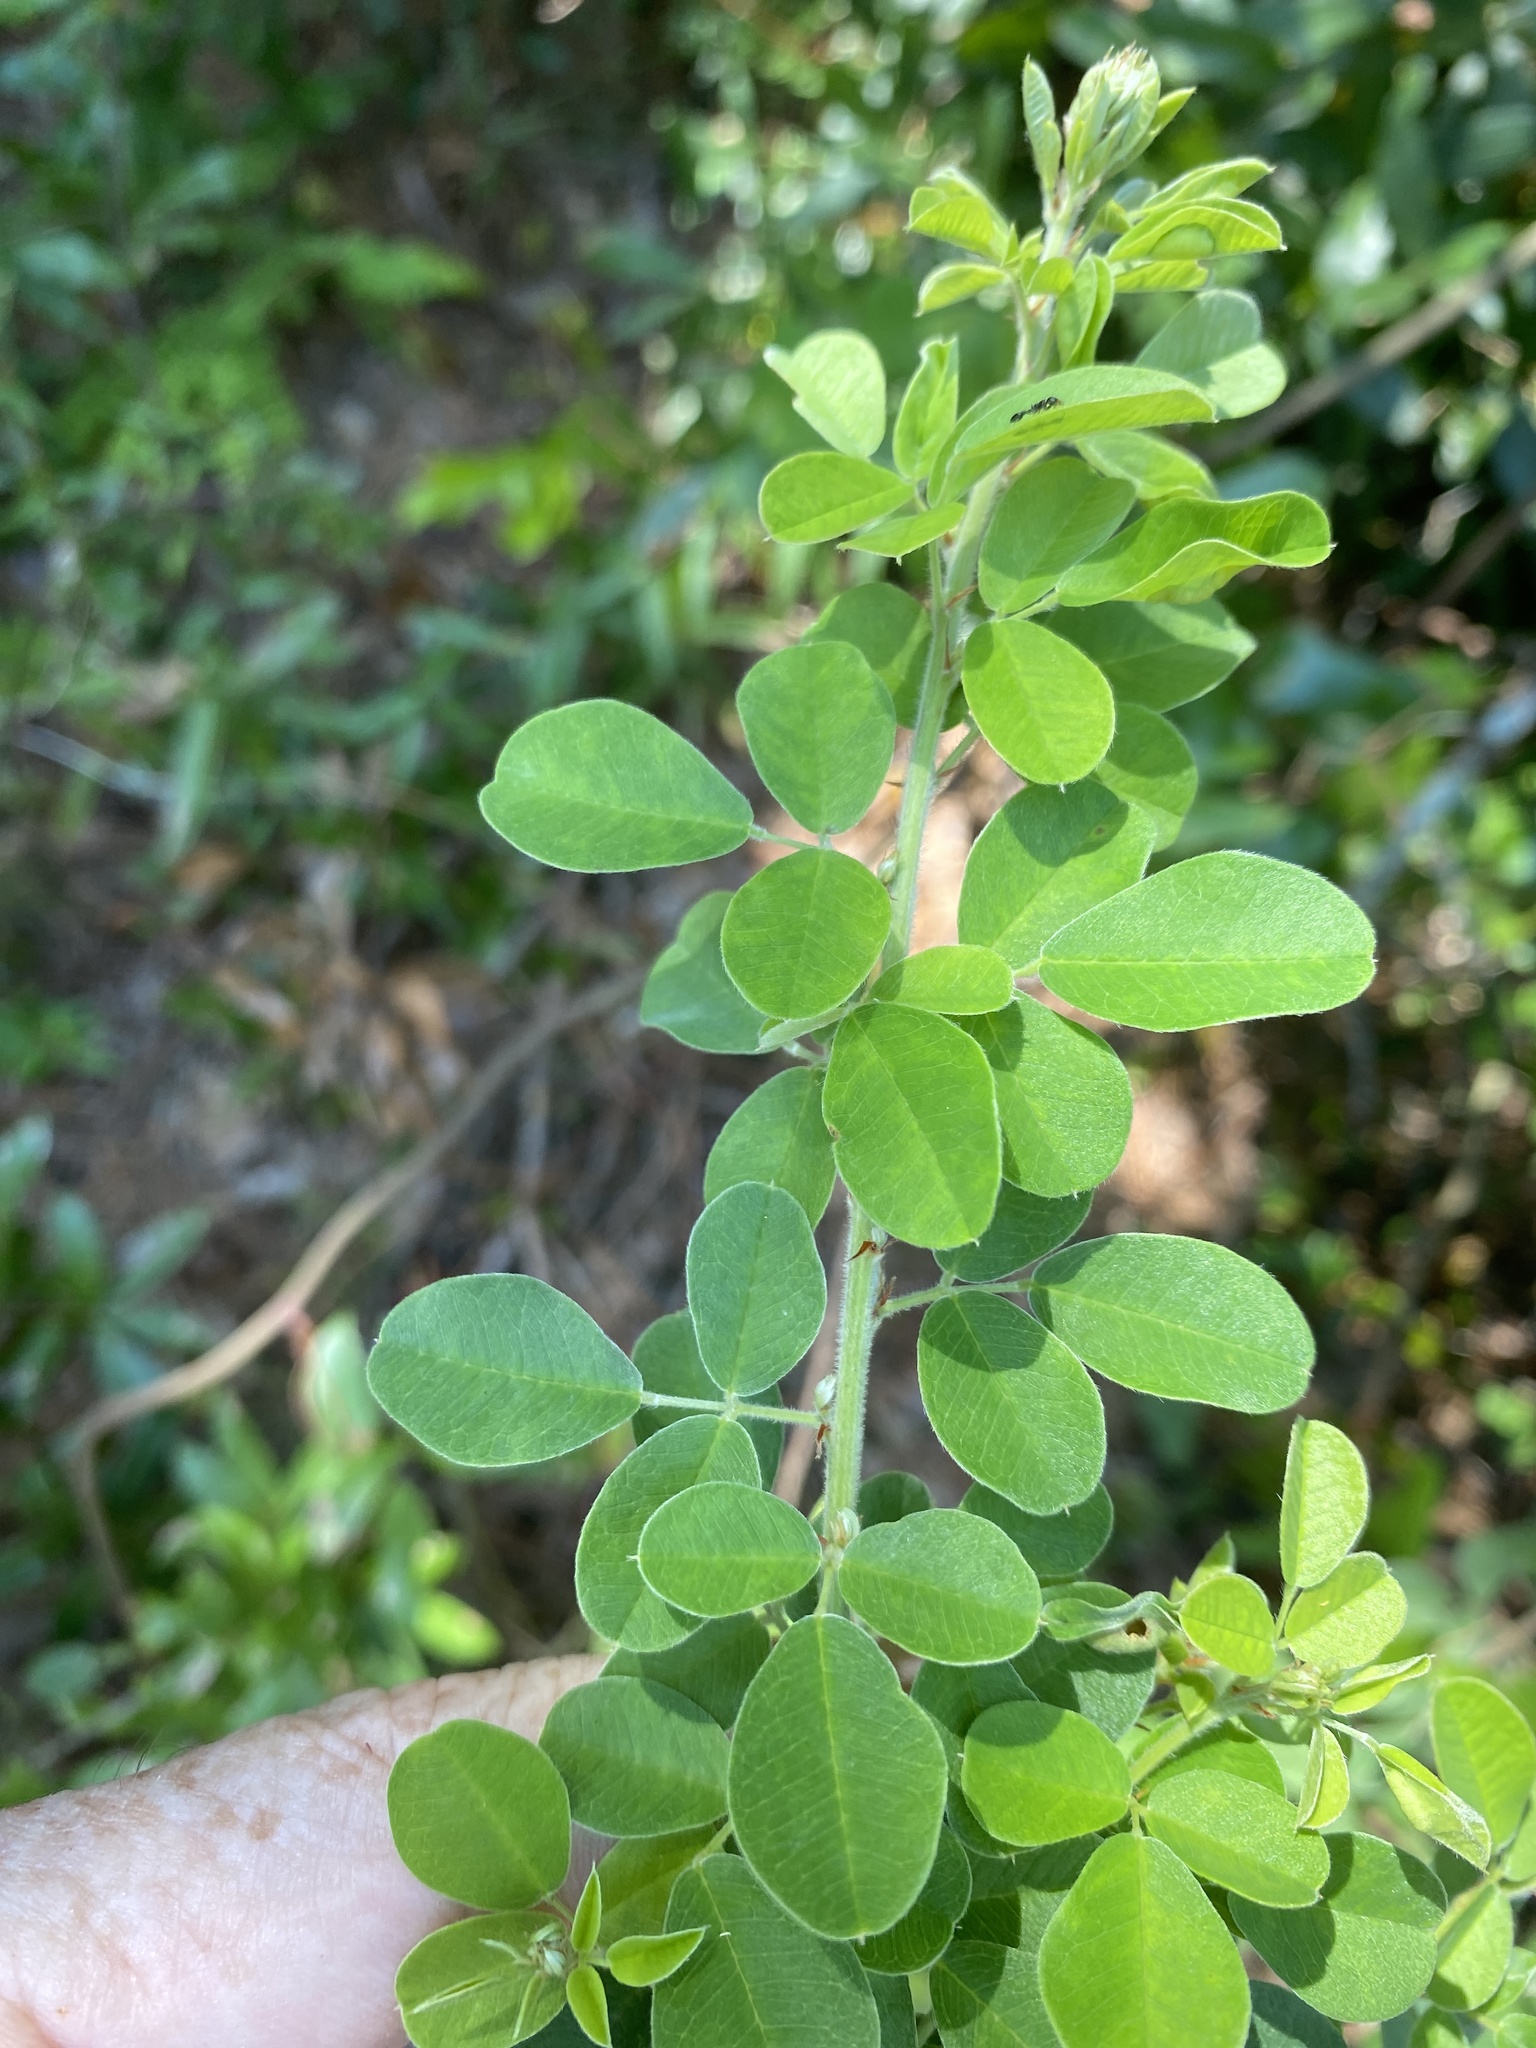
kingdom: Plantae
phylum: Tracheophyta
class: Magnoliopsida
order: Fabales
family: Fabaceae
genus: Lespedeza
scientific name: Lespedeza hirta
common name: Hairy lespedeza
